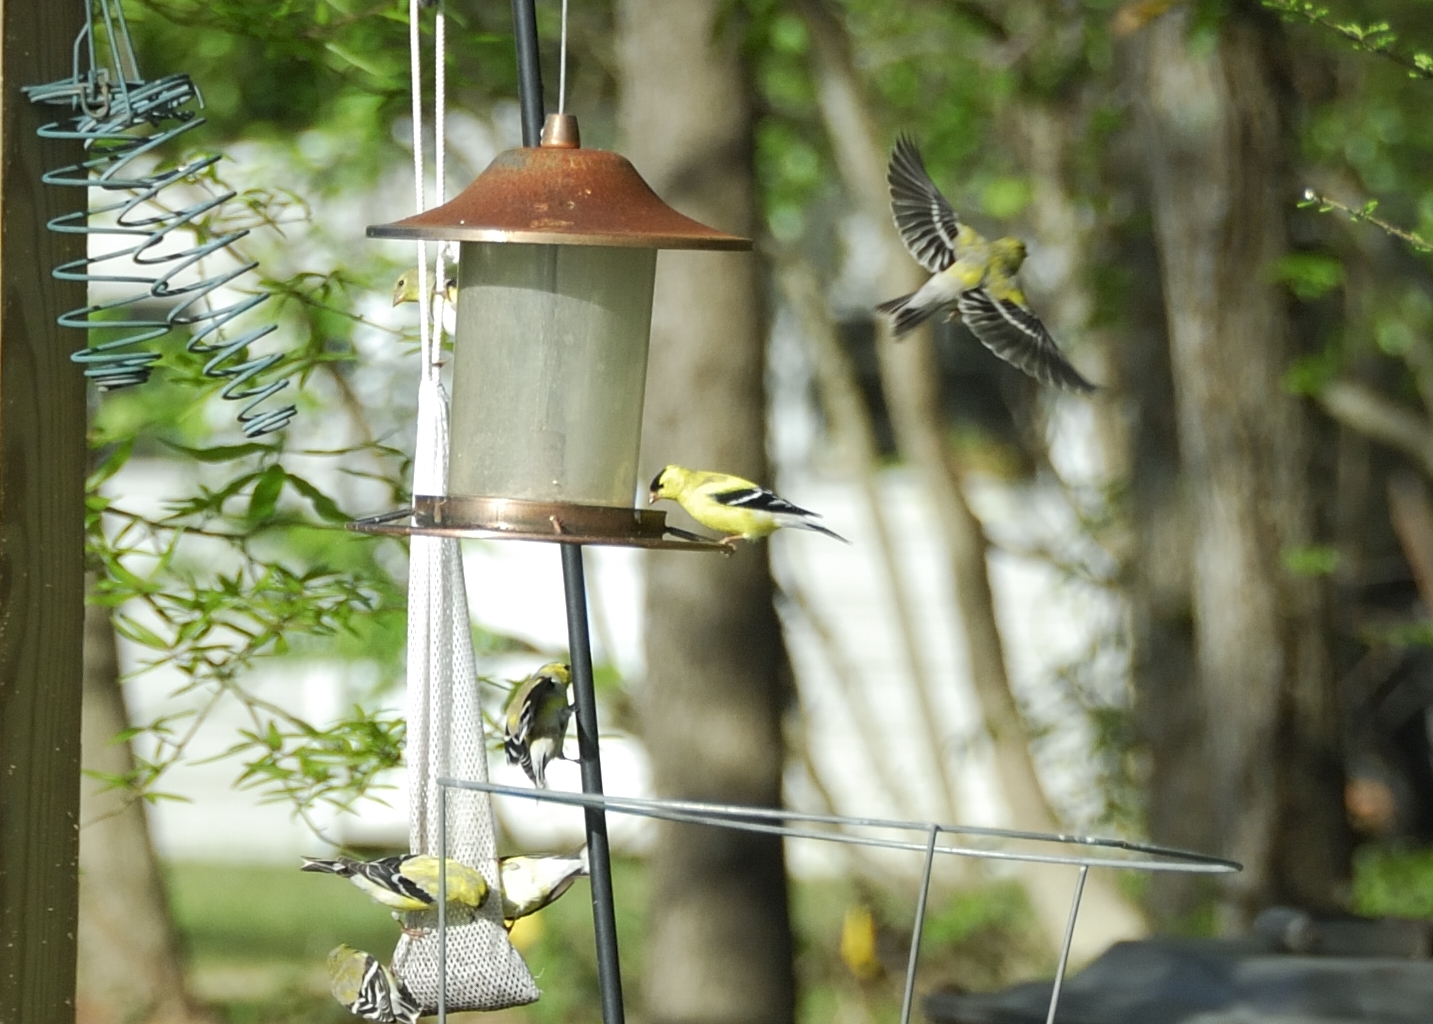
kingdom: Animalia
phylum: Chordata
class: Aves
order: Passeriformes
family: Fringillidae
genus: Spinus
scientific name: Spinus tristis
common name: American goldfinch
